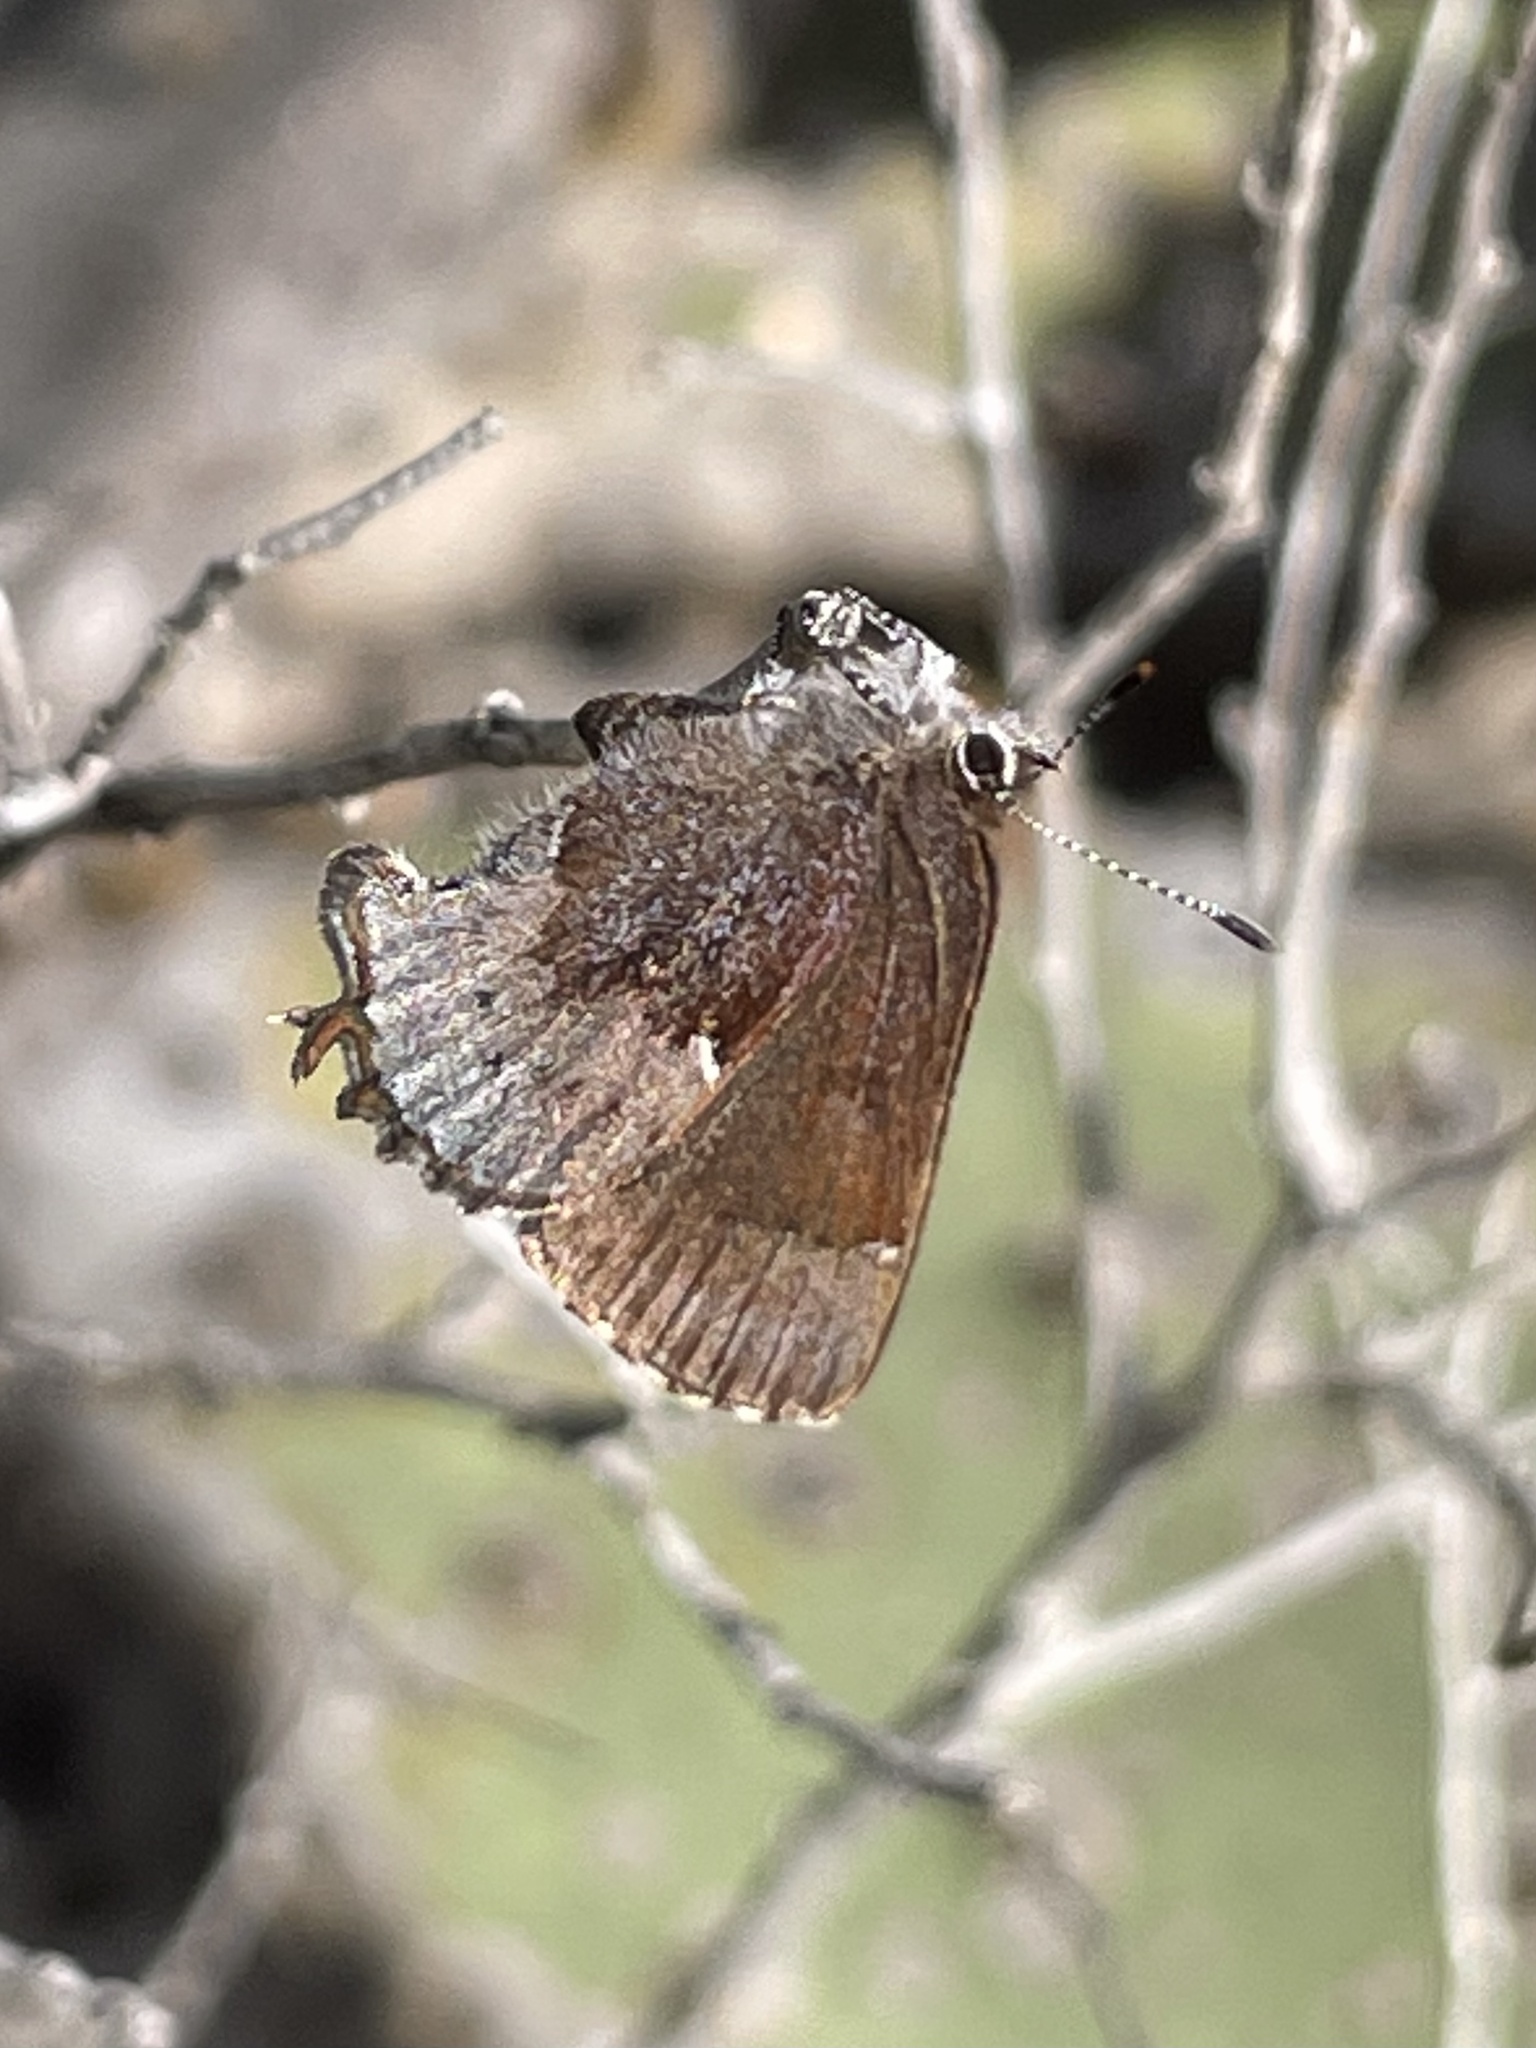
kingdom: Animalia
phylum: Arthropoda
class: Insecta
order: Lepidoptera
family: Lycaenidae
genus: Incisalia
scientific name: Incisalia henrici
